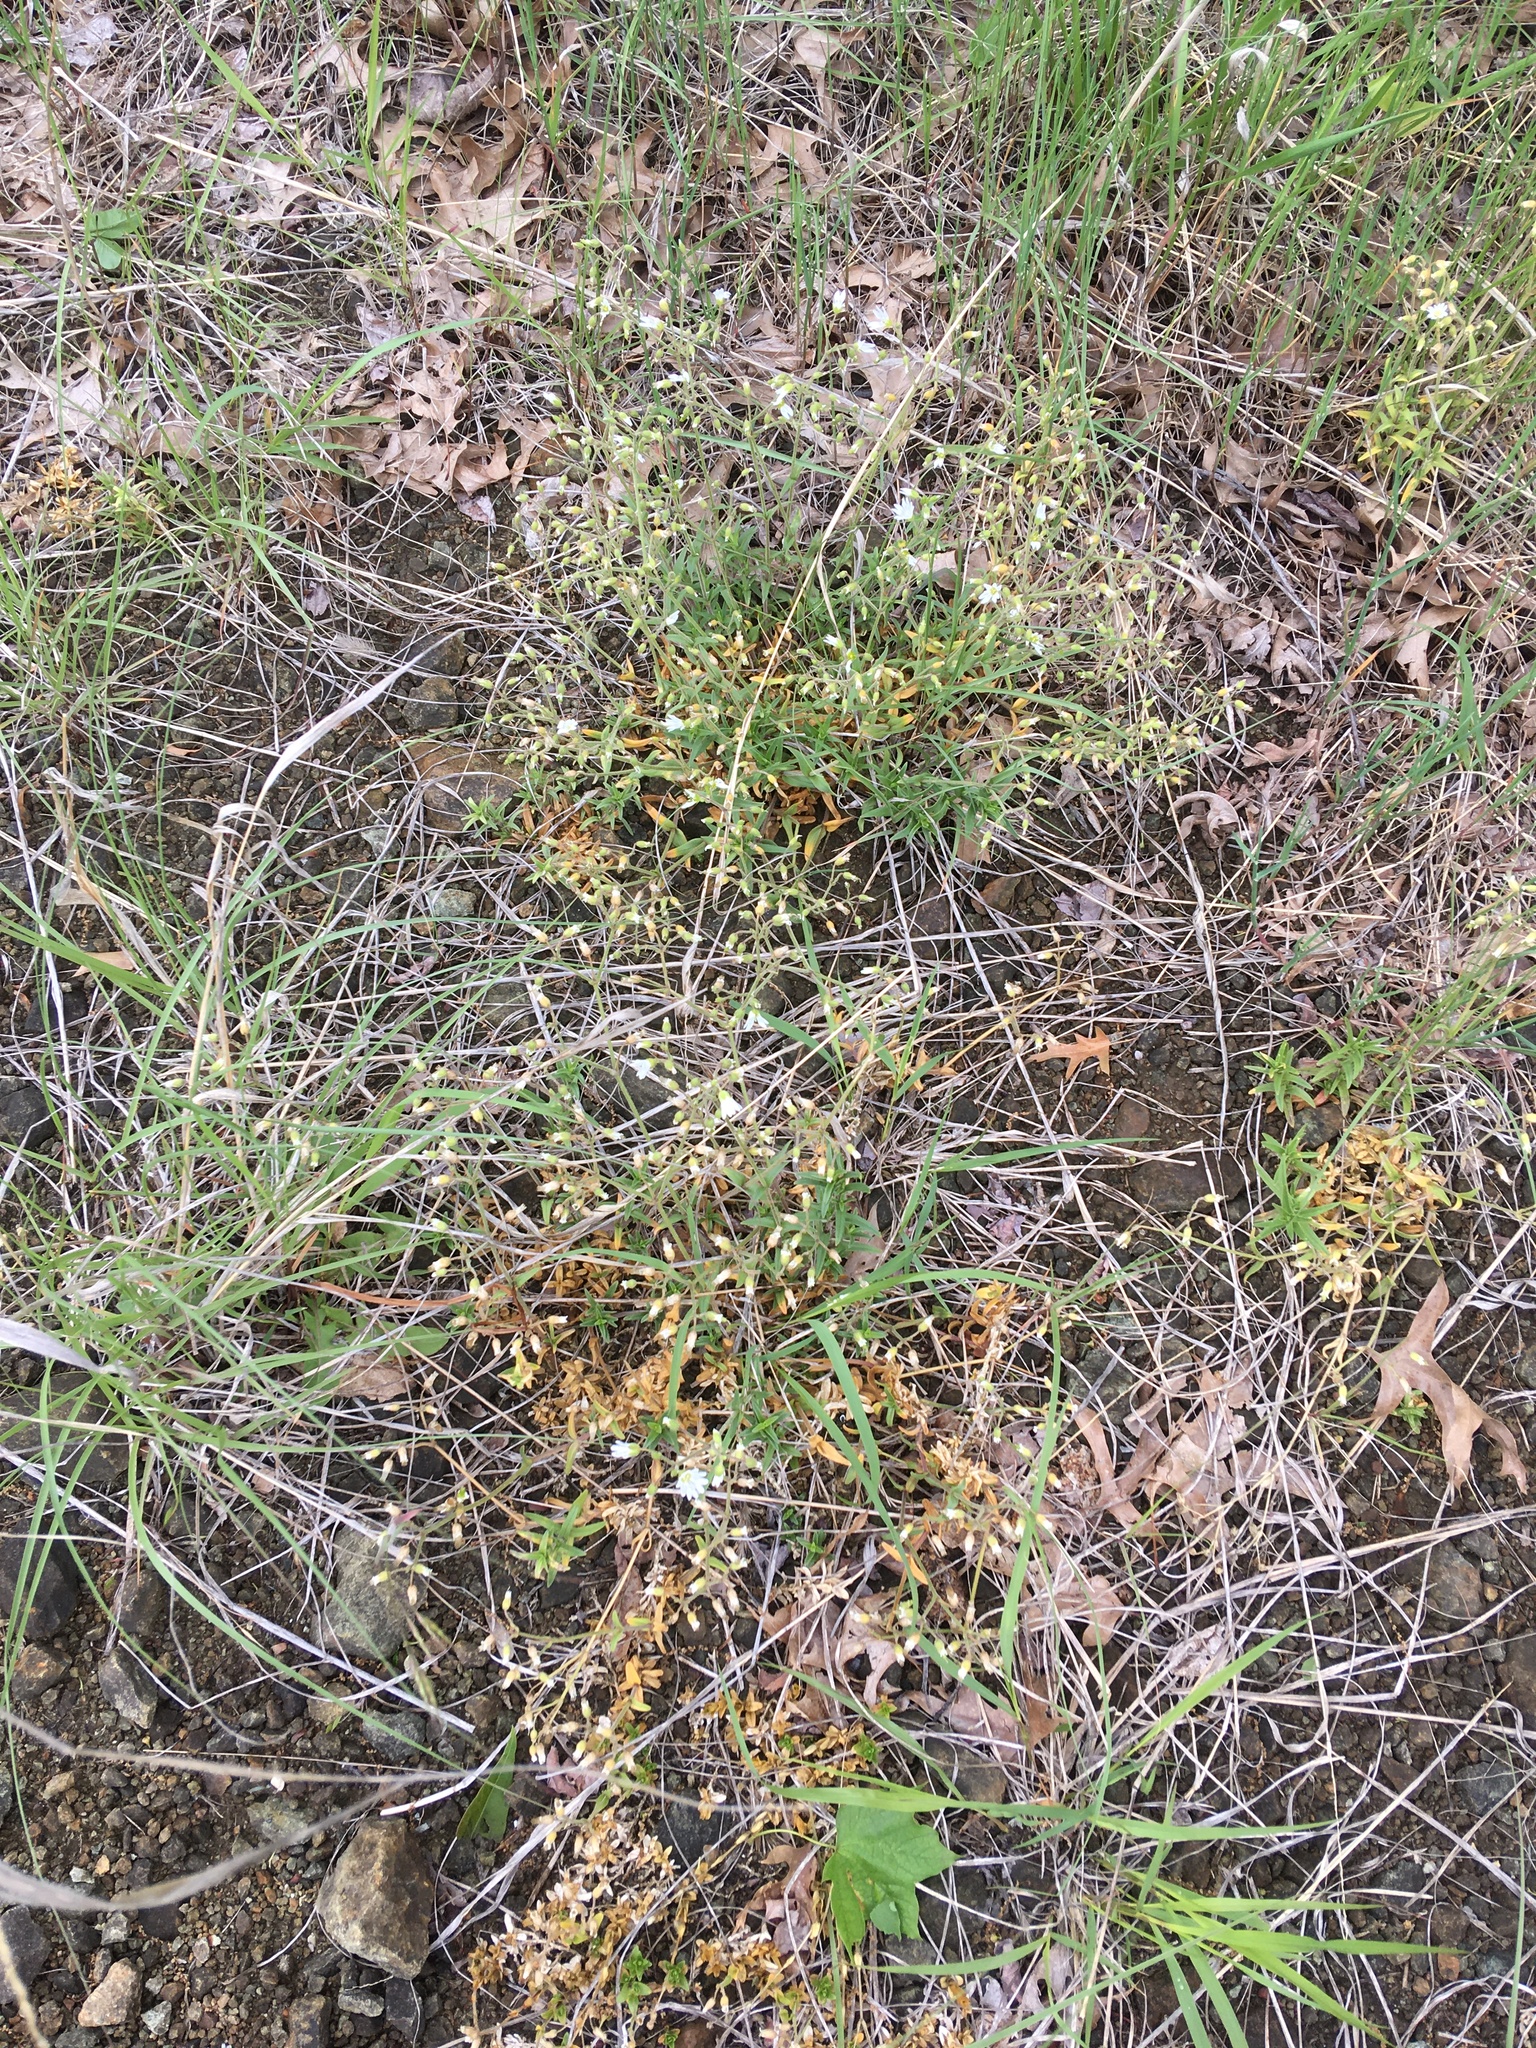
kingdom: Plantae
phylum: Tracheophyta
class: Magnoliopsida
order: Caryophyllales
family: Caryophyllaceae
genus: Cerastium
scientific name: Cerastium arvense
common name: Field mouse-ear
